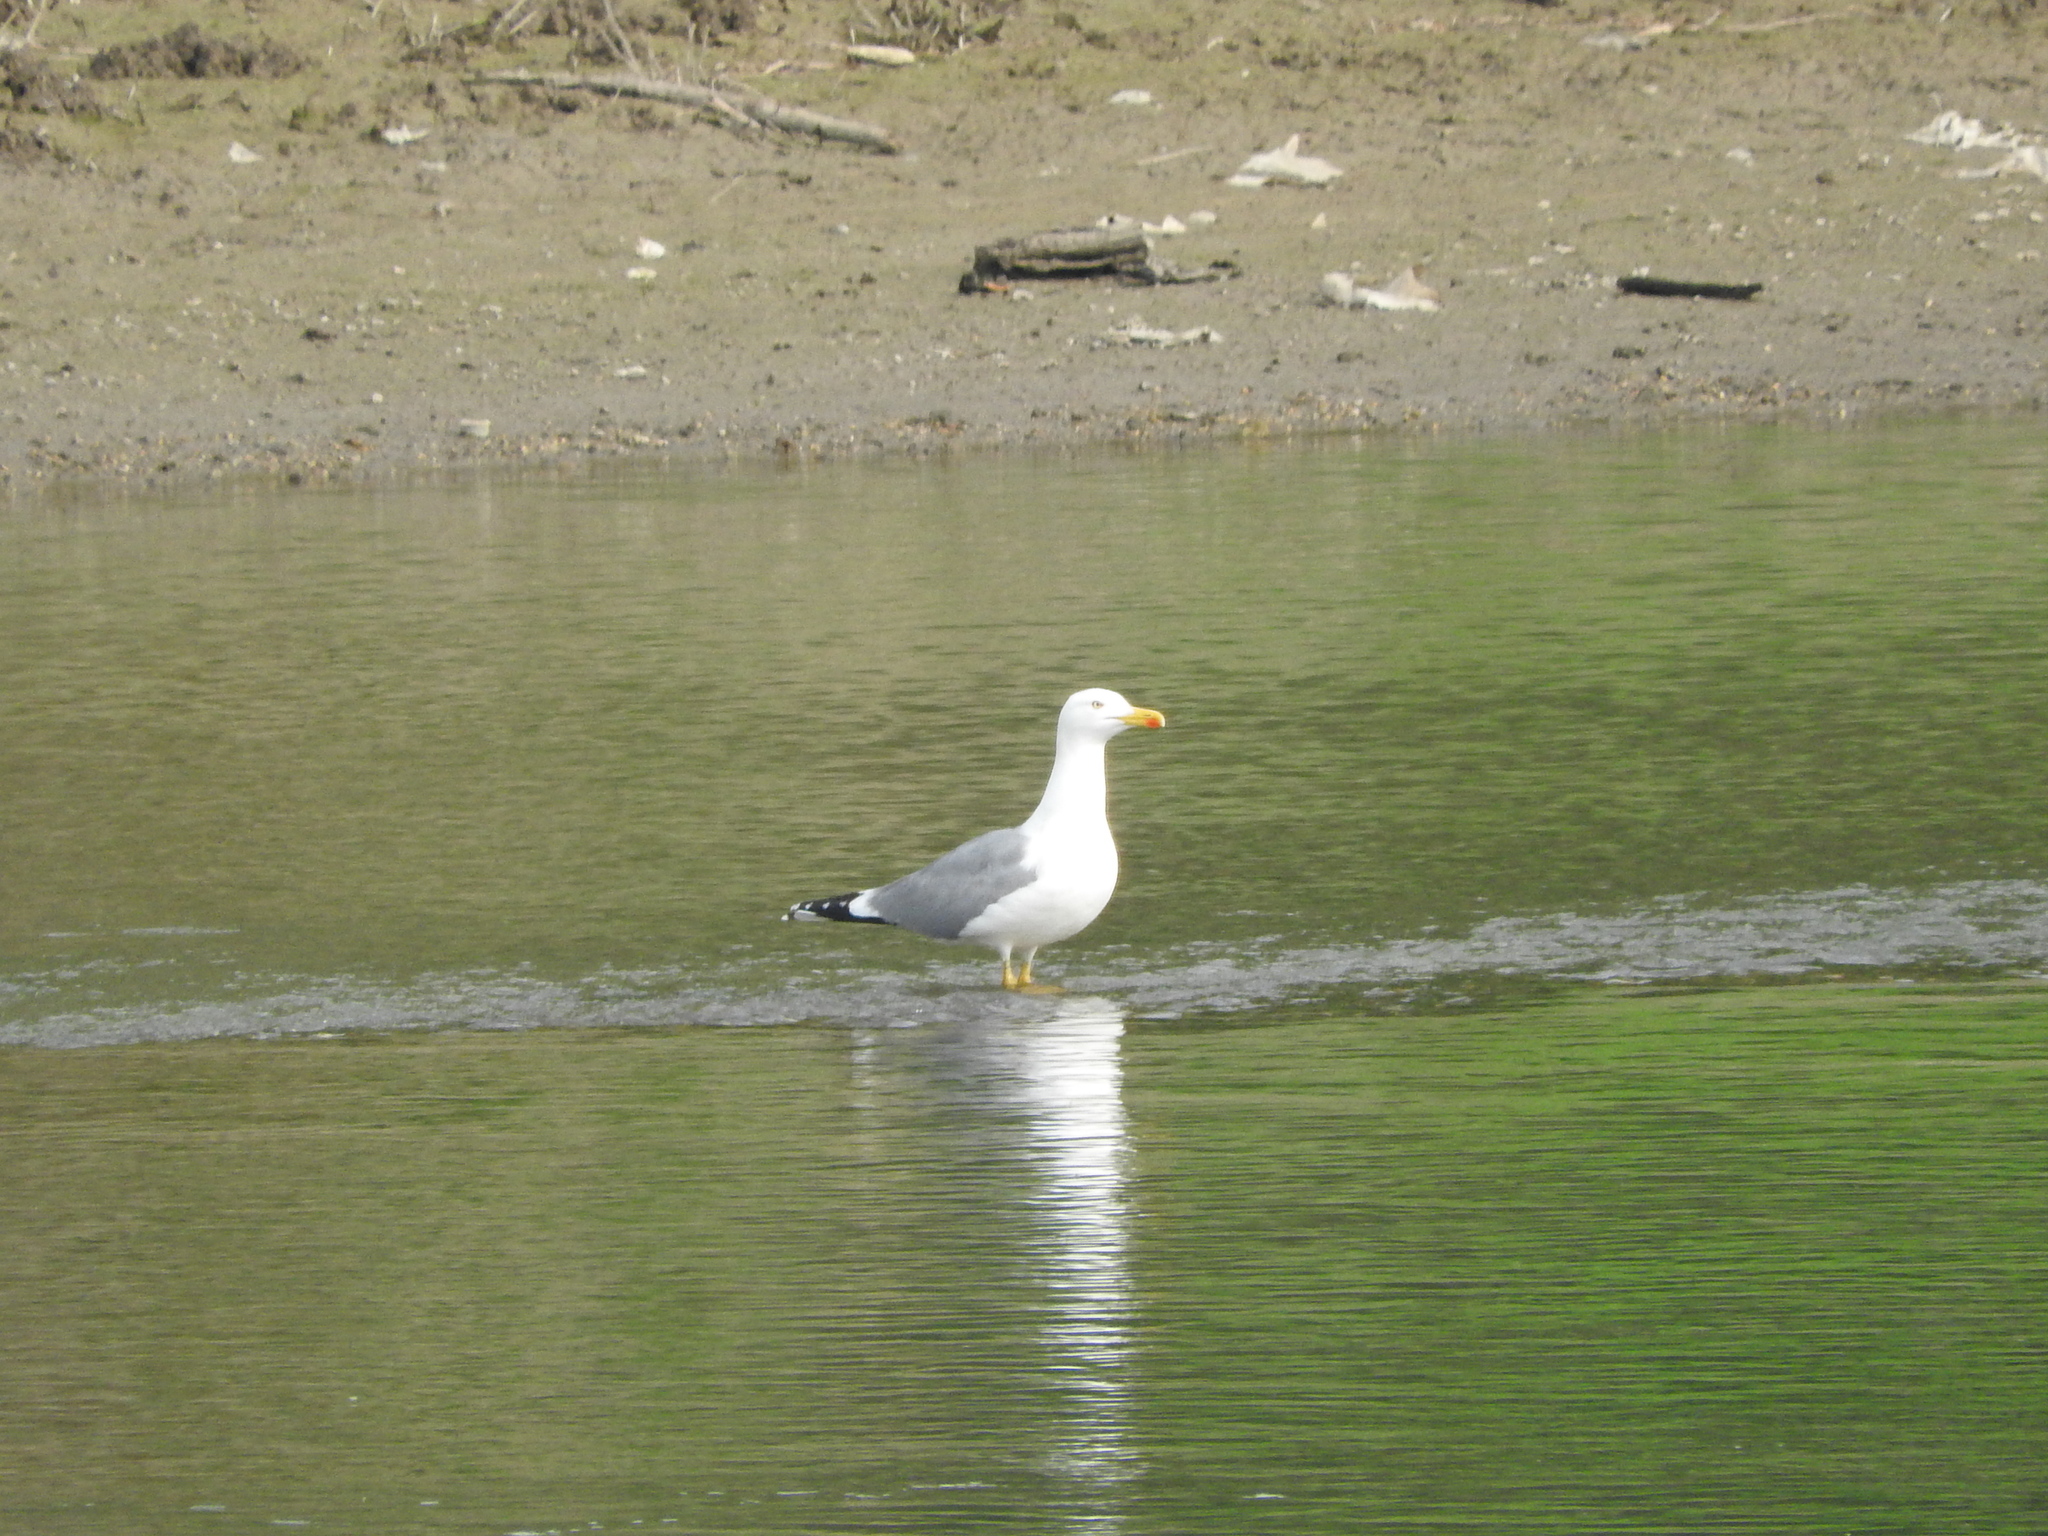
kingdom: Animalia
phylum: Chordata
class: Aves
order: Charadriiformes
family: Laridae
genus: Larus
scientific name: Larus michahellis
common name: Yellow-legged gull
